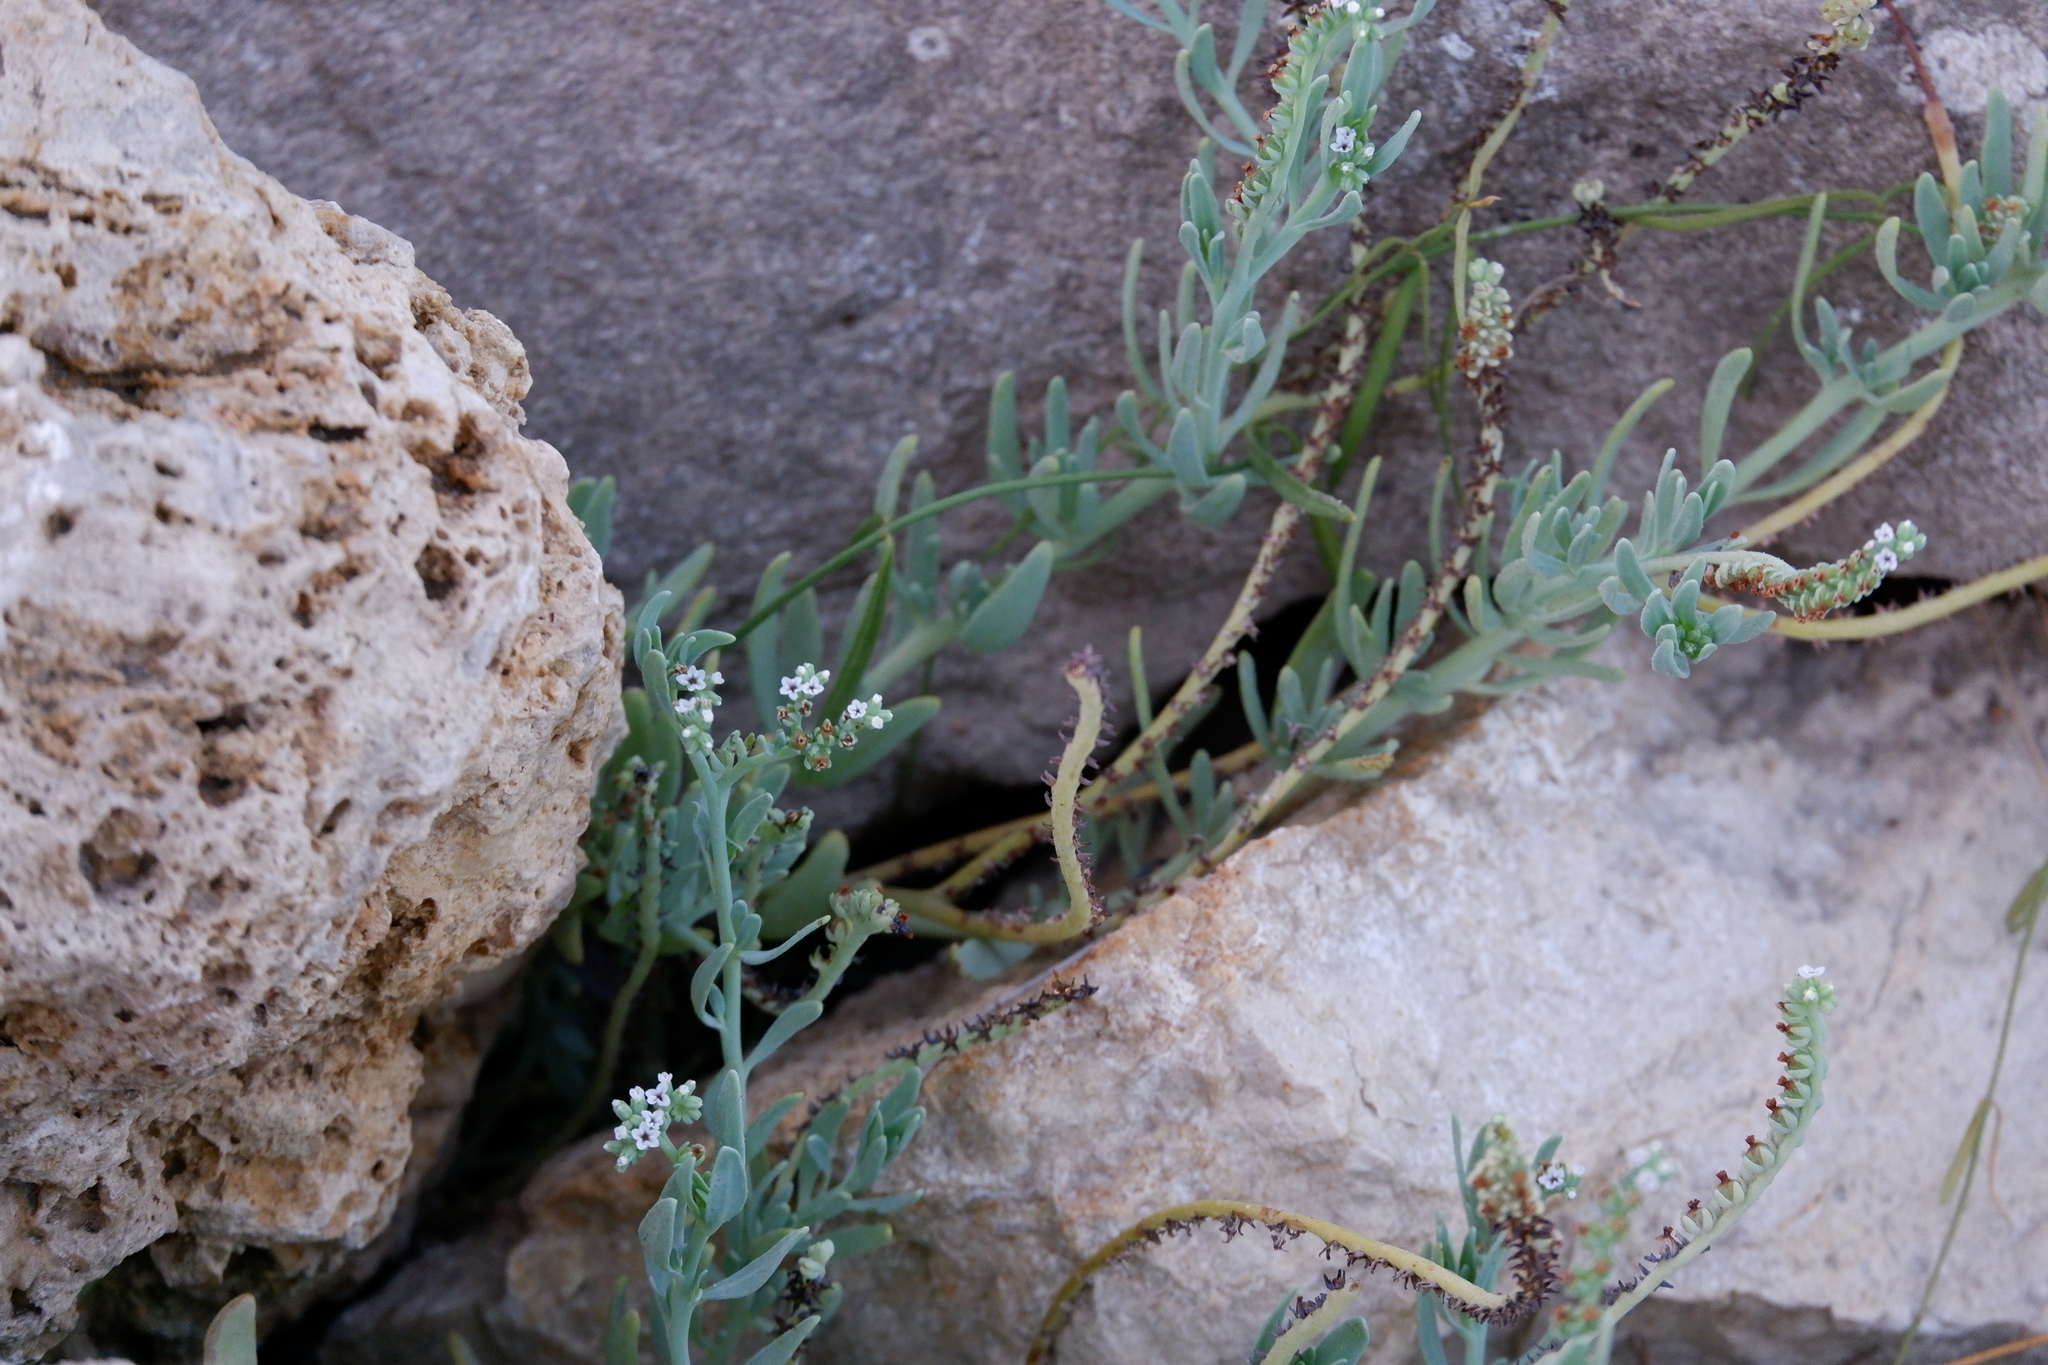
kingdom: Plantae
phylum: Tracheophyta
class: Magnoliopsida
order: Boraginales
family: Heliotropiaceae
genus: Heliotropium
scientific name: Heliotropium curassavicum
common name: Seaside heliotrope
